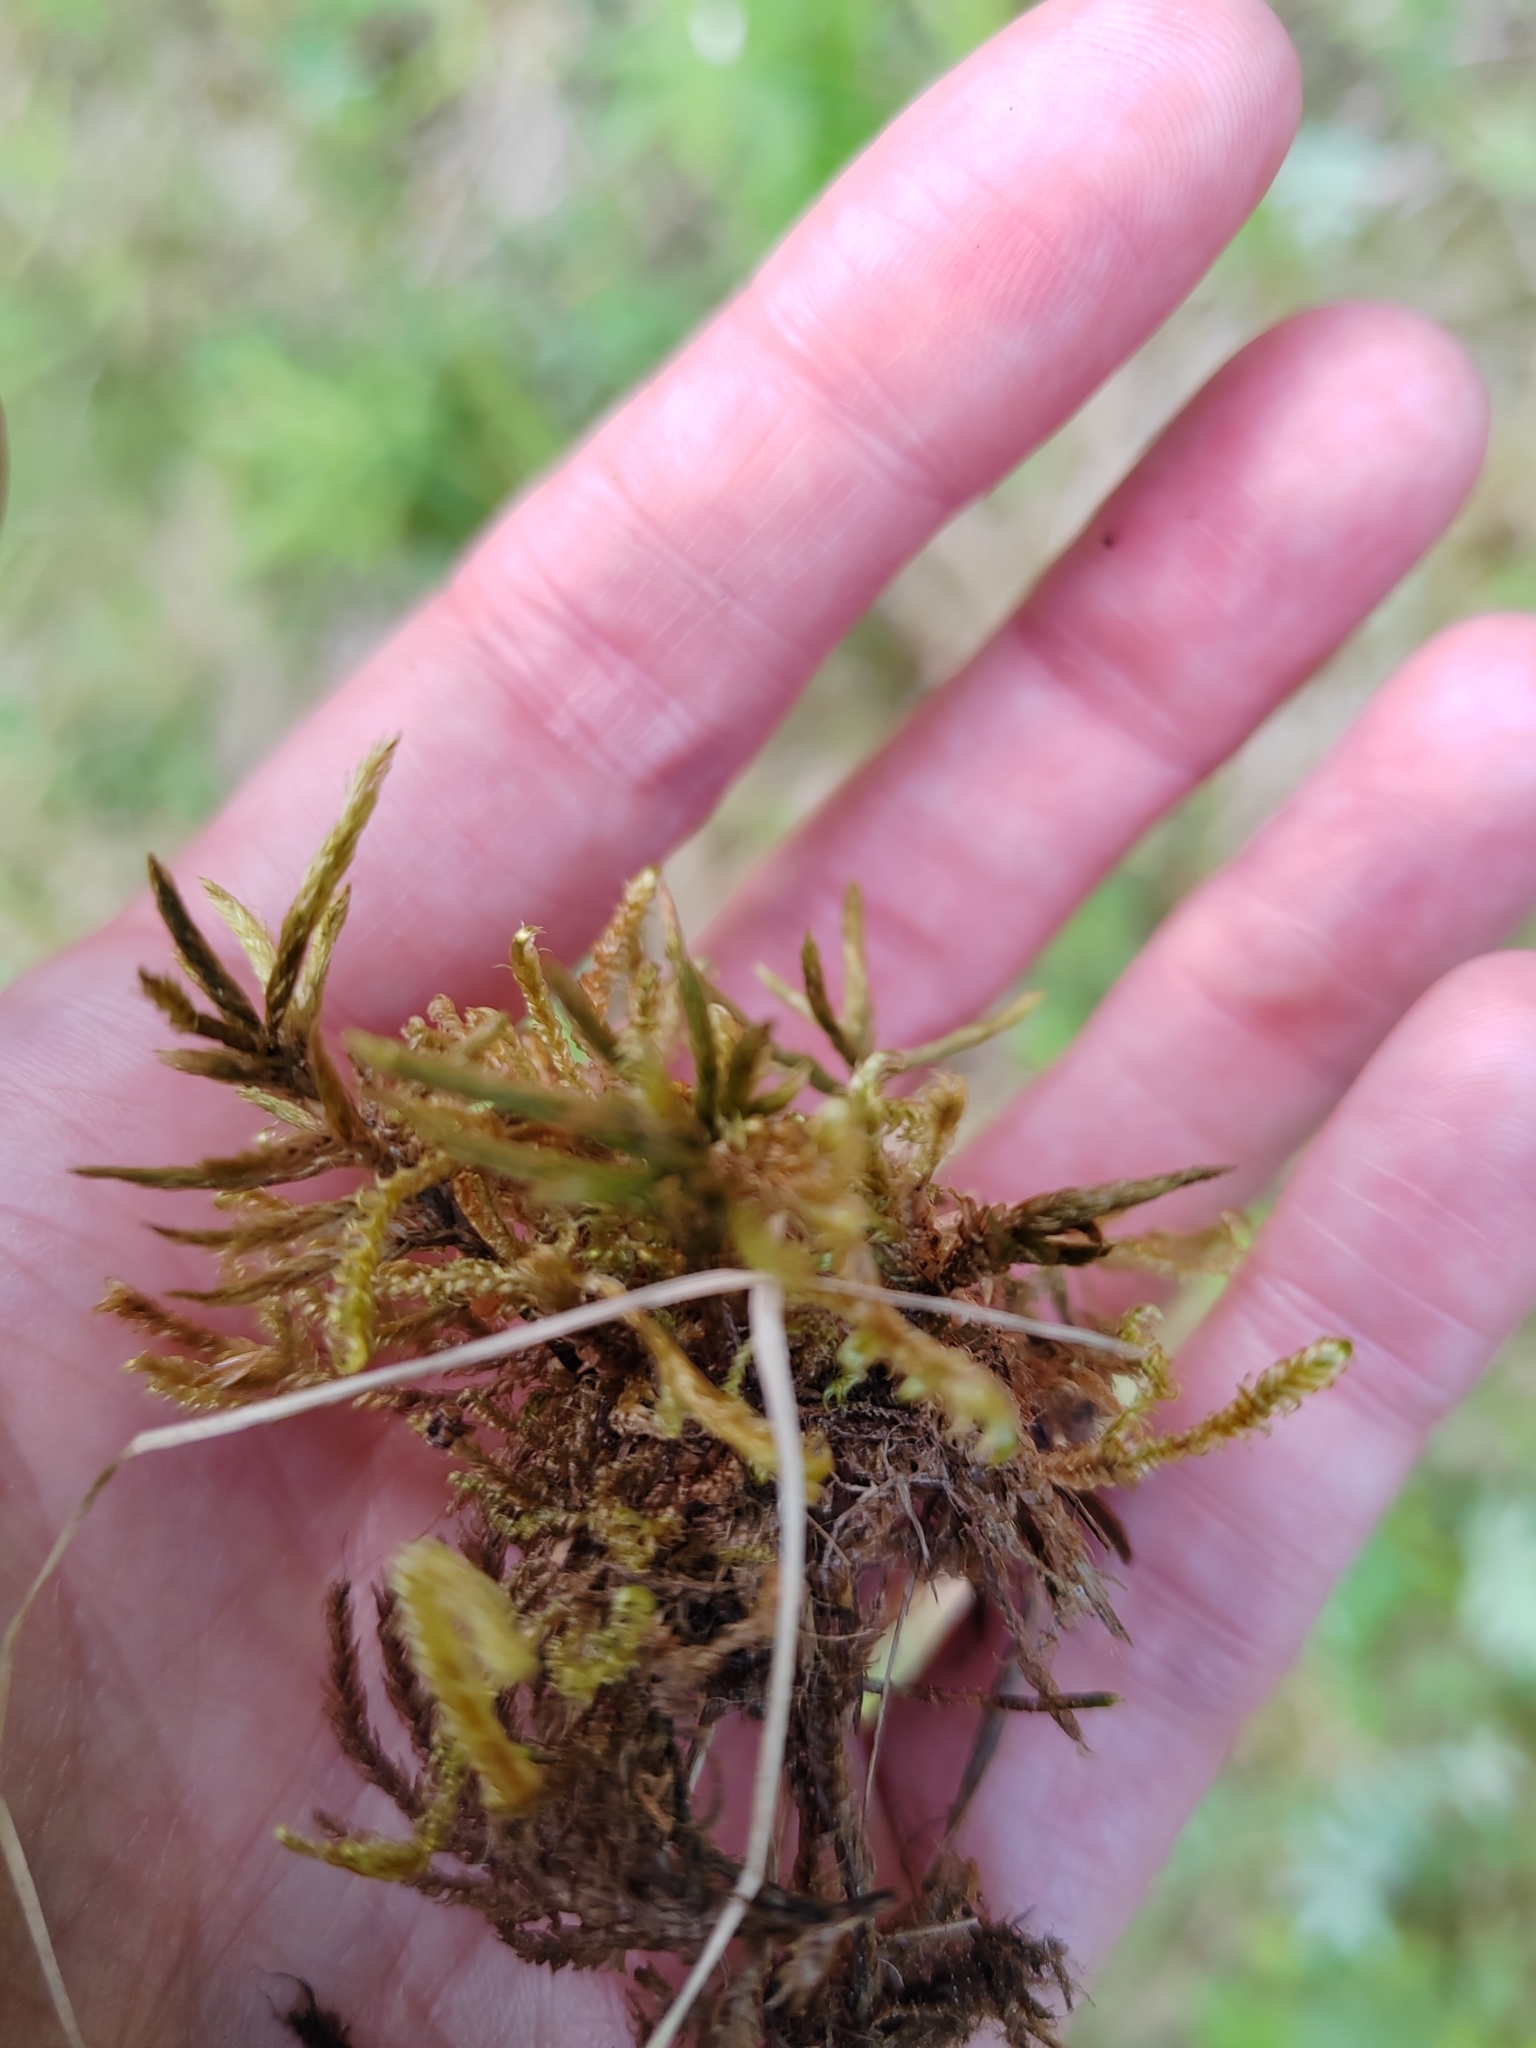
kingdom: Plantae
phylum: Bryophyta
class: Bryopsida
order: Hypnales
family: Climaciaceae
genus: Climacium
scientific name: Climacium dendroides
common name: Northern tree moss
